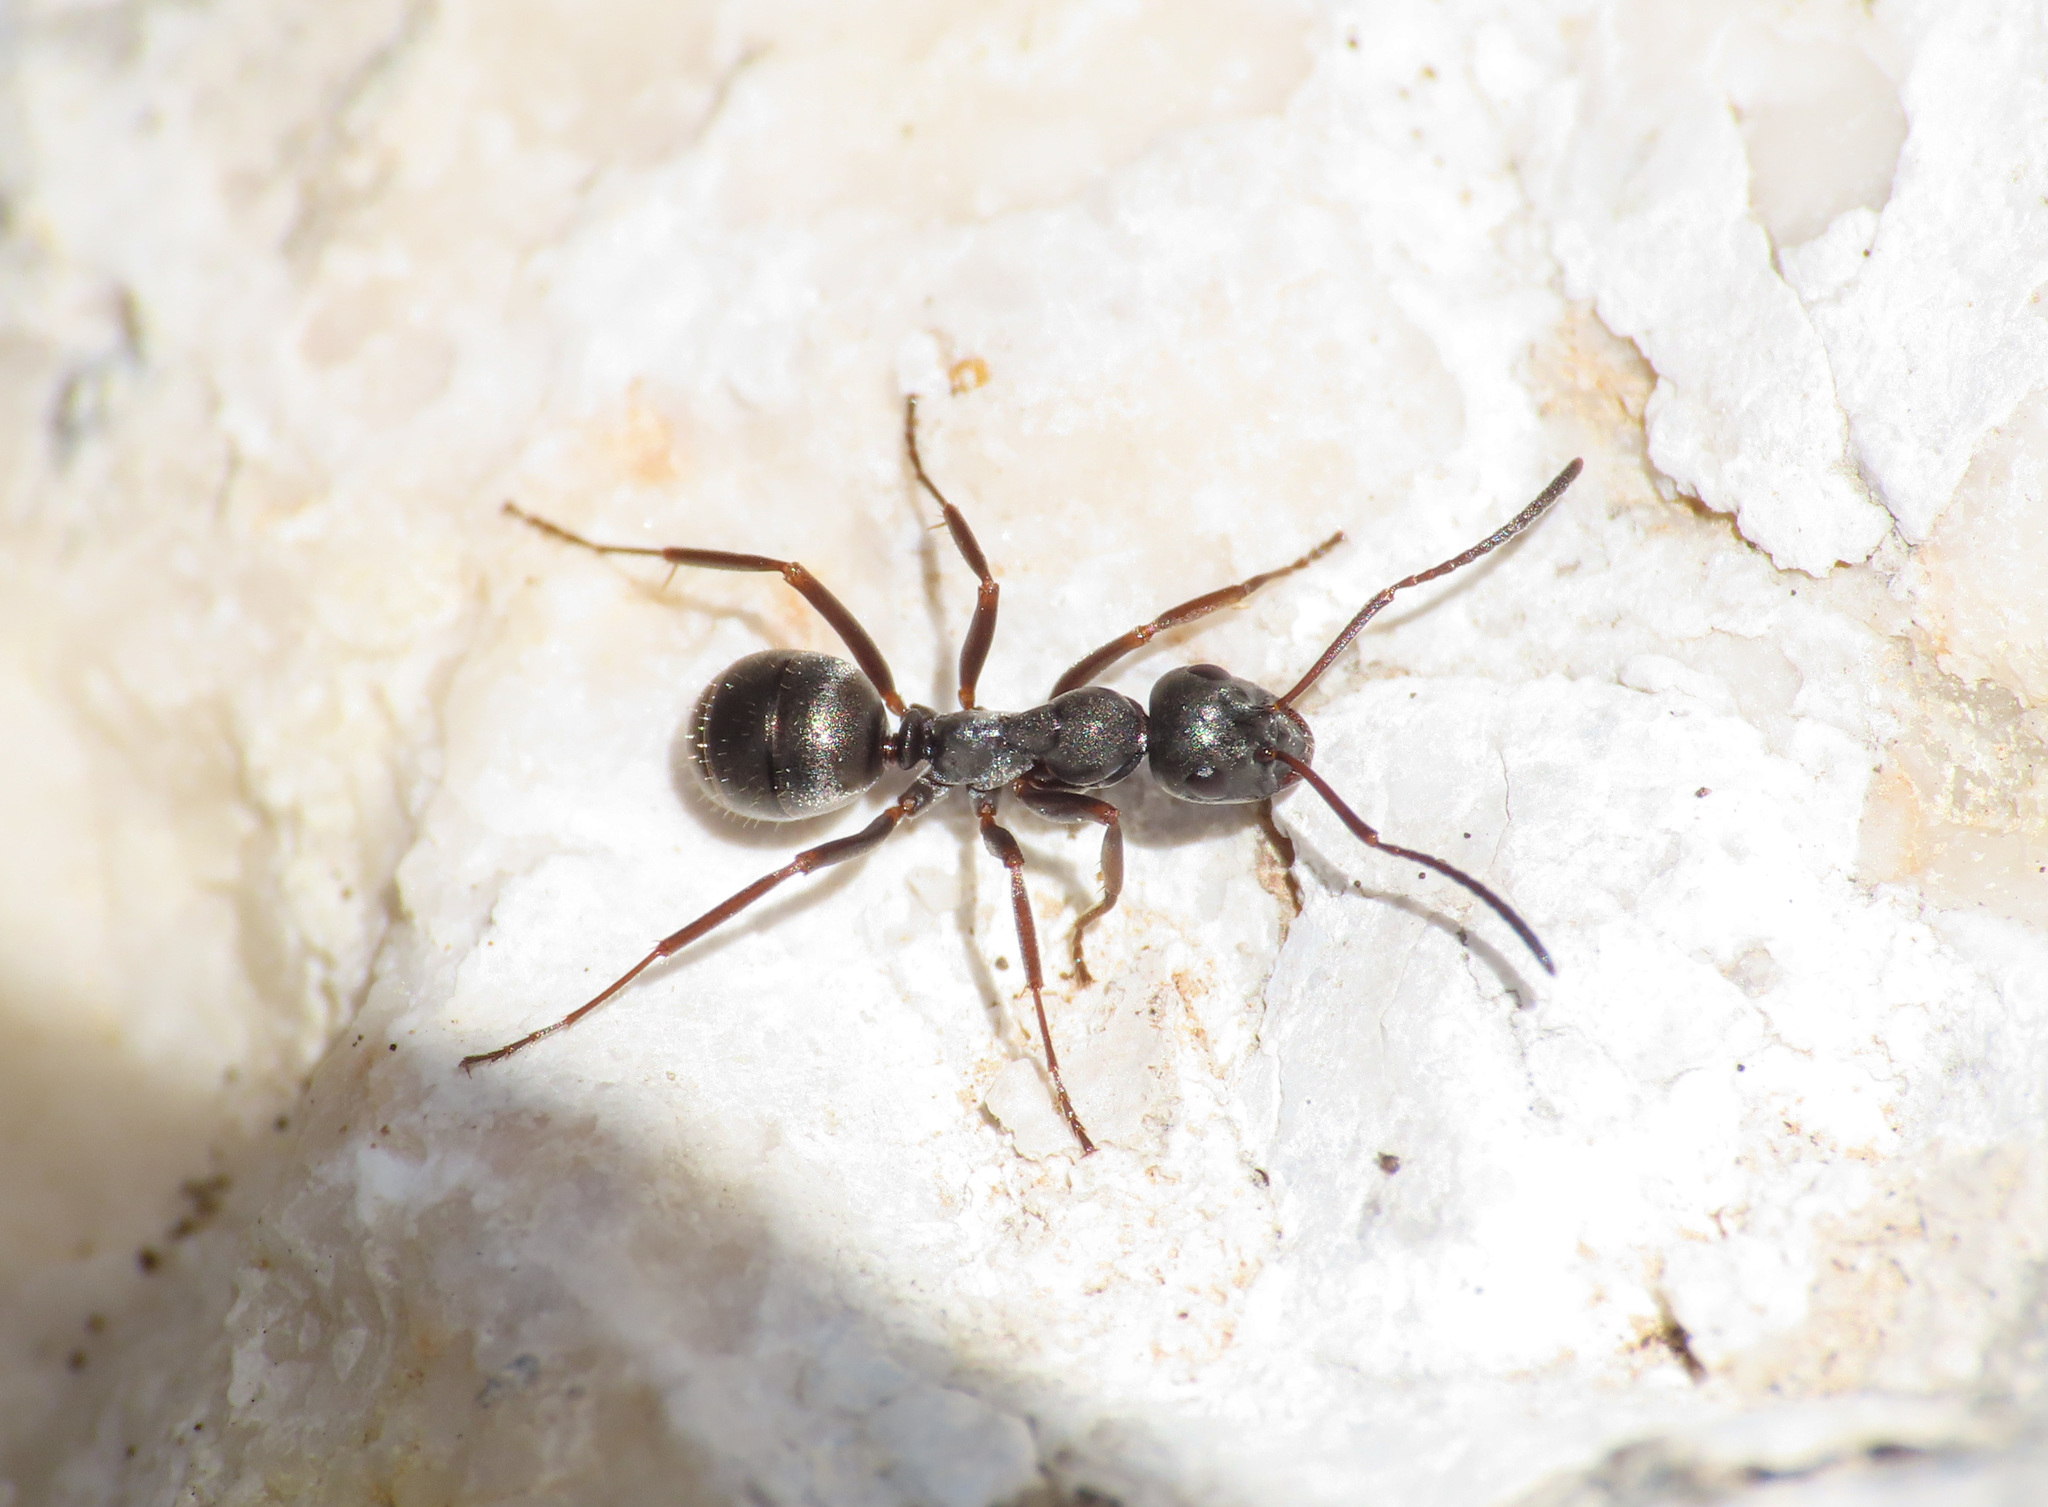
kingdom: Animalia
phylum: Arthropoda
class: Insecta
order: Hymenoptera
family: Formicidae
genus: Formica
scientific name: Formica fusca
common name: Silky ant
